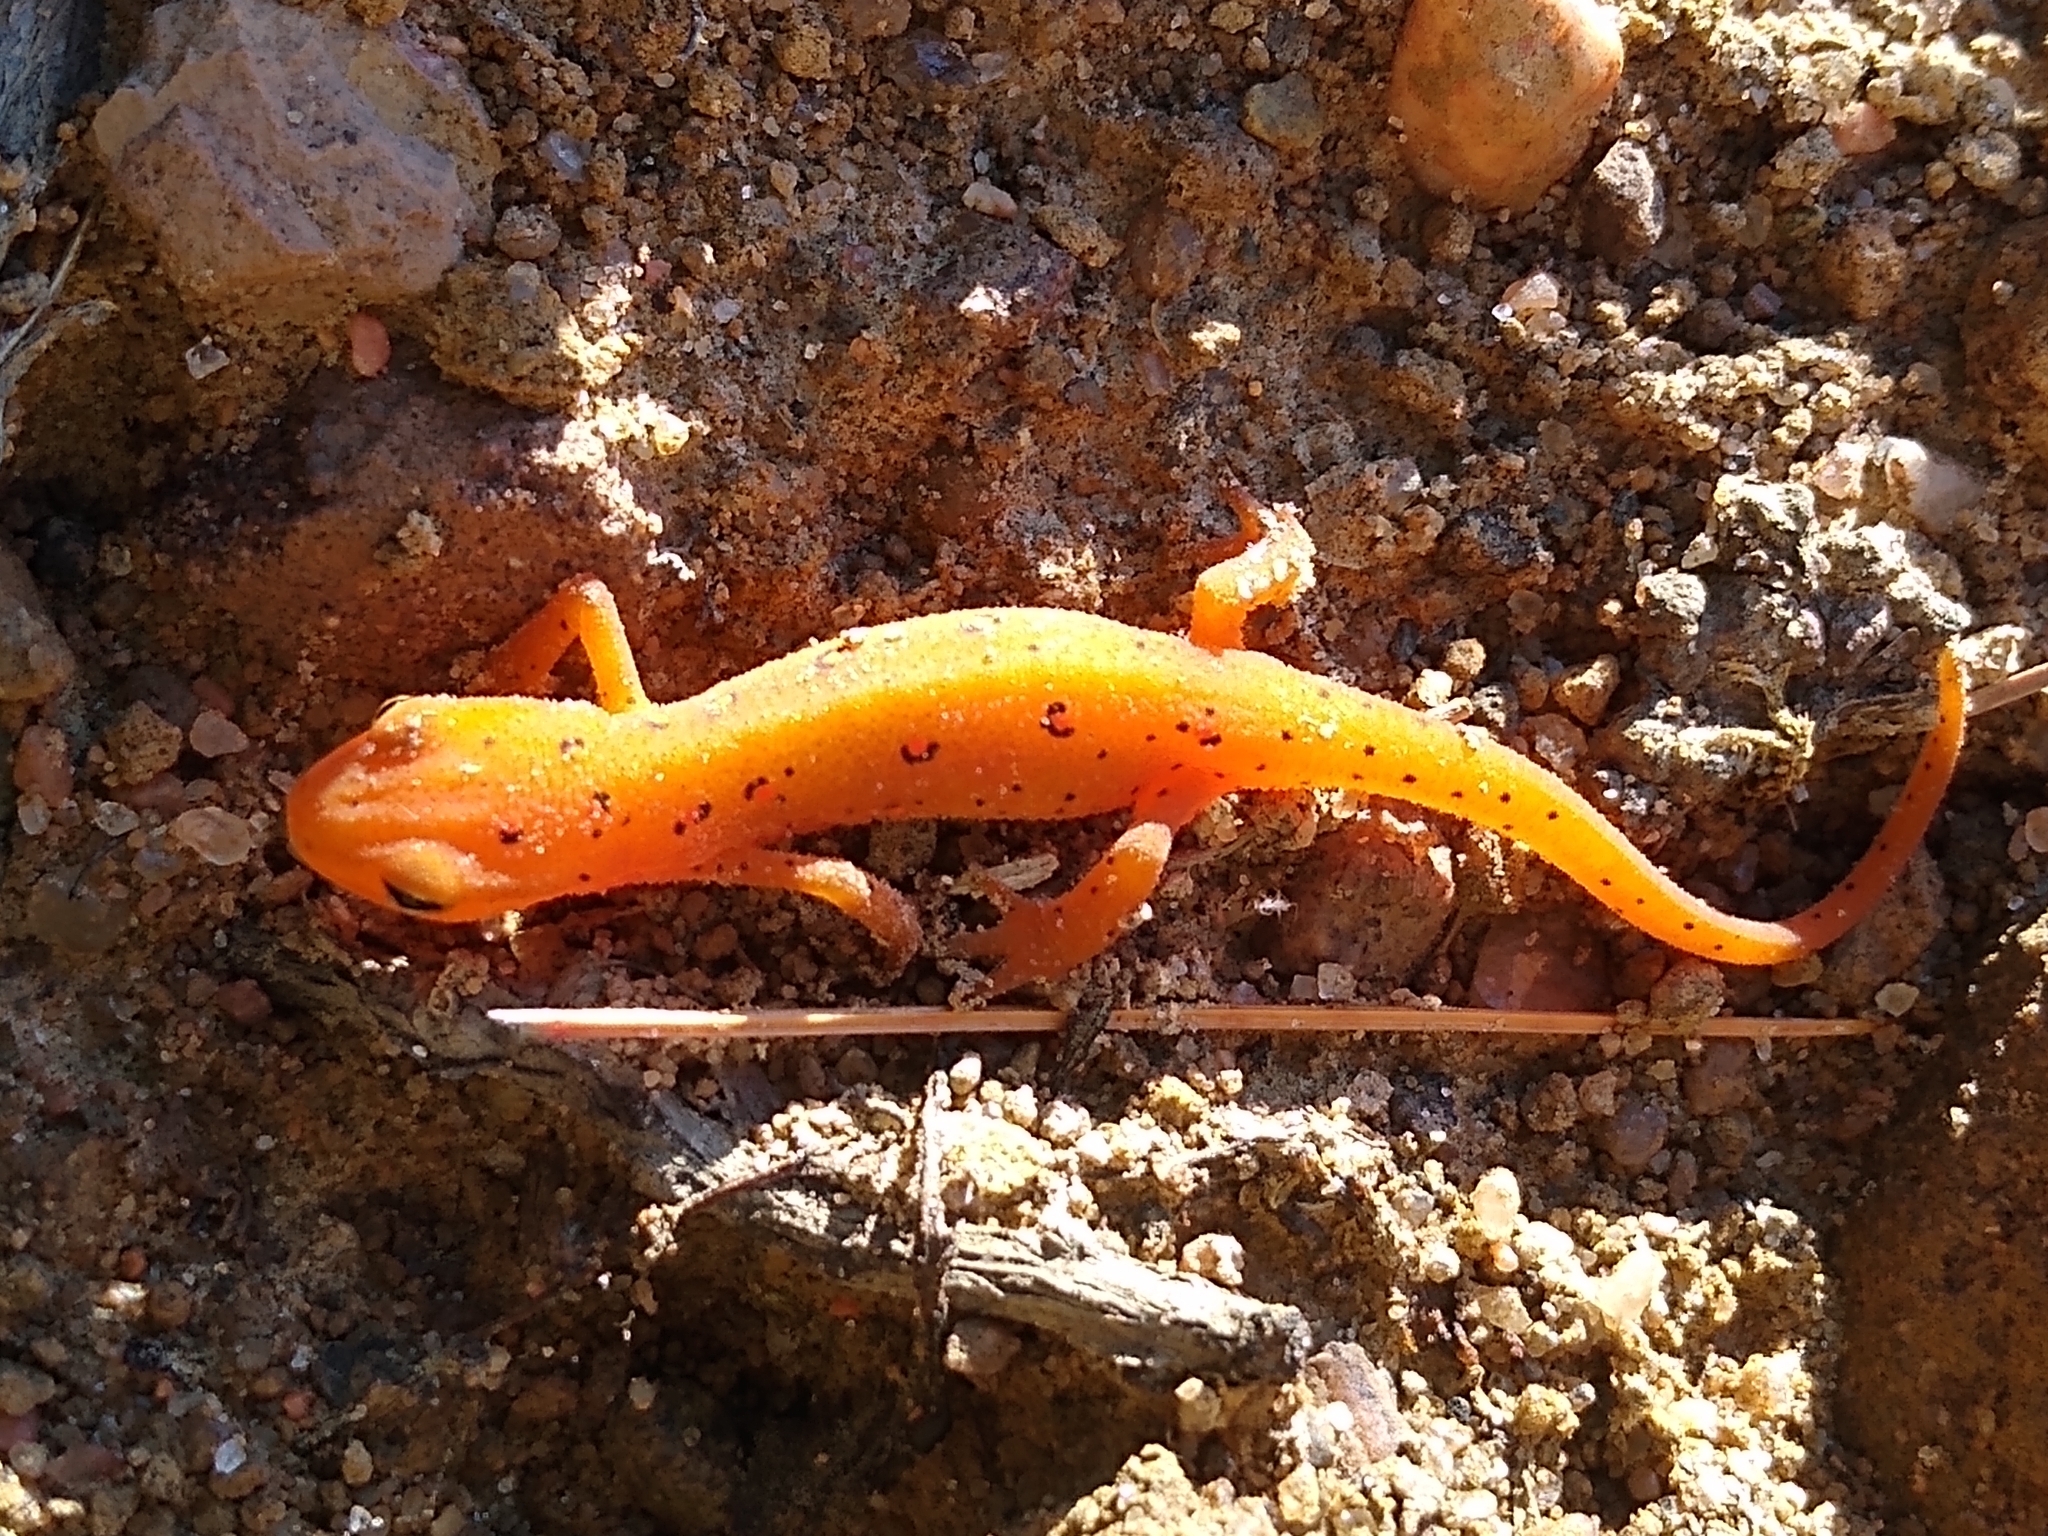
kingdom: Animalia
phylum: Chordata
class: Amphibia
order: Caudata
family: Salamandridae
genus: Notophthalmus
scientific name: Notophthalmus viridescens
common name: Eastern newt
